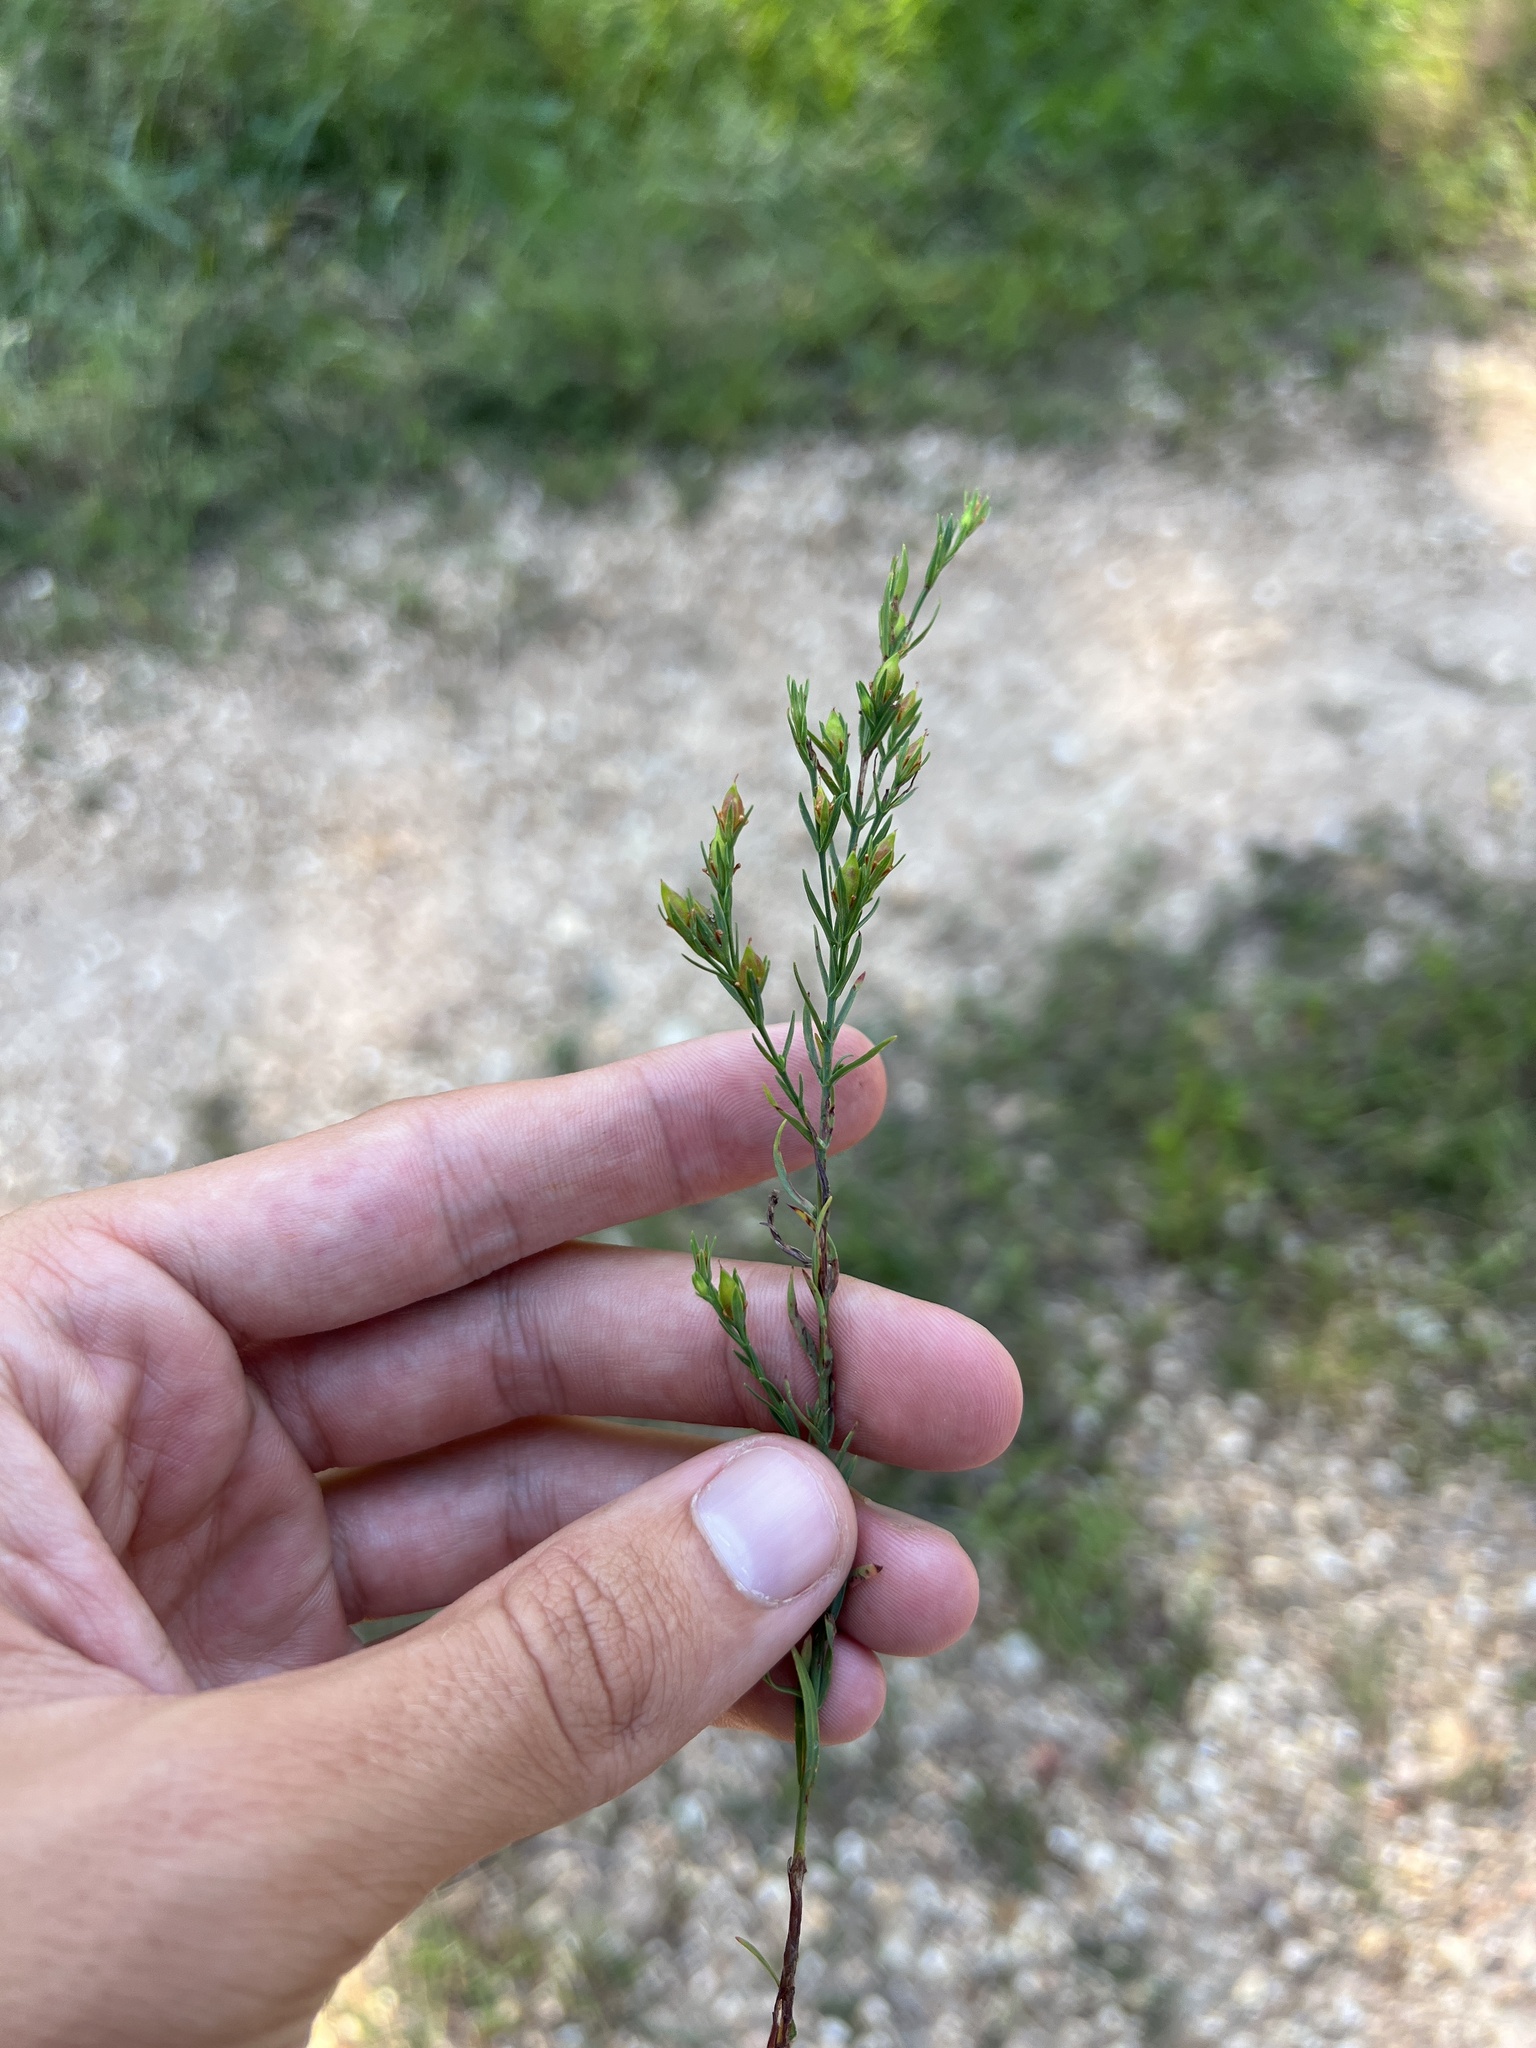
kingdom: Plantae
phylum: Tracheophyta
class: Magnoliopsida
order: Malpighiales
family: Hypericaceae
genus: Hypericum
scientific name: Hypericum drummondii
